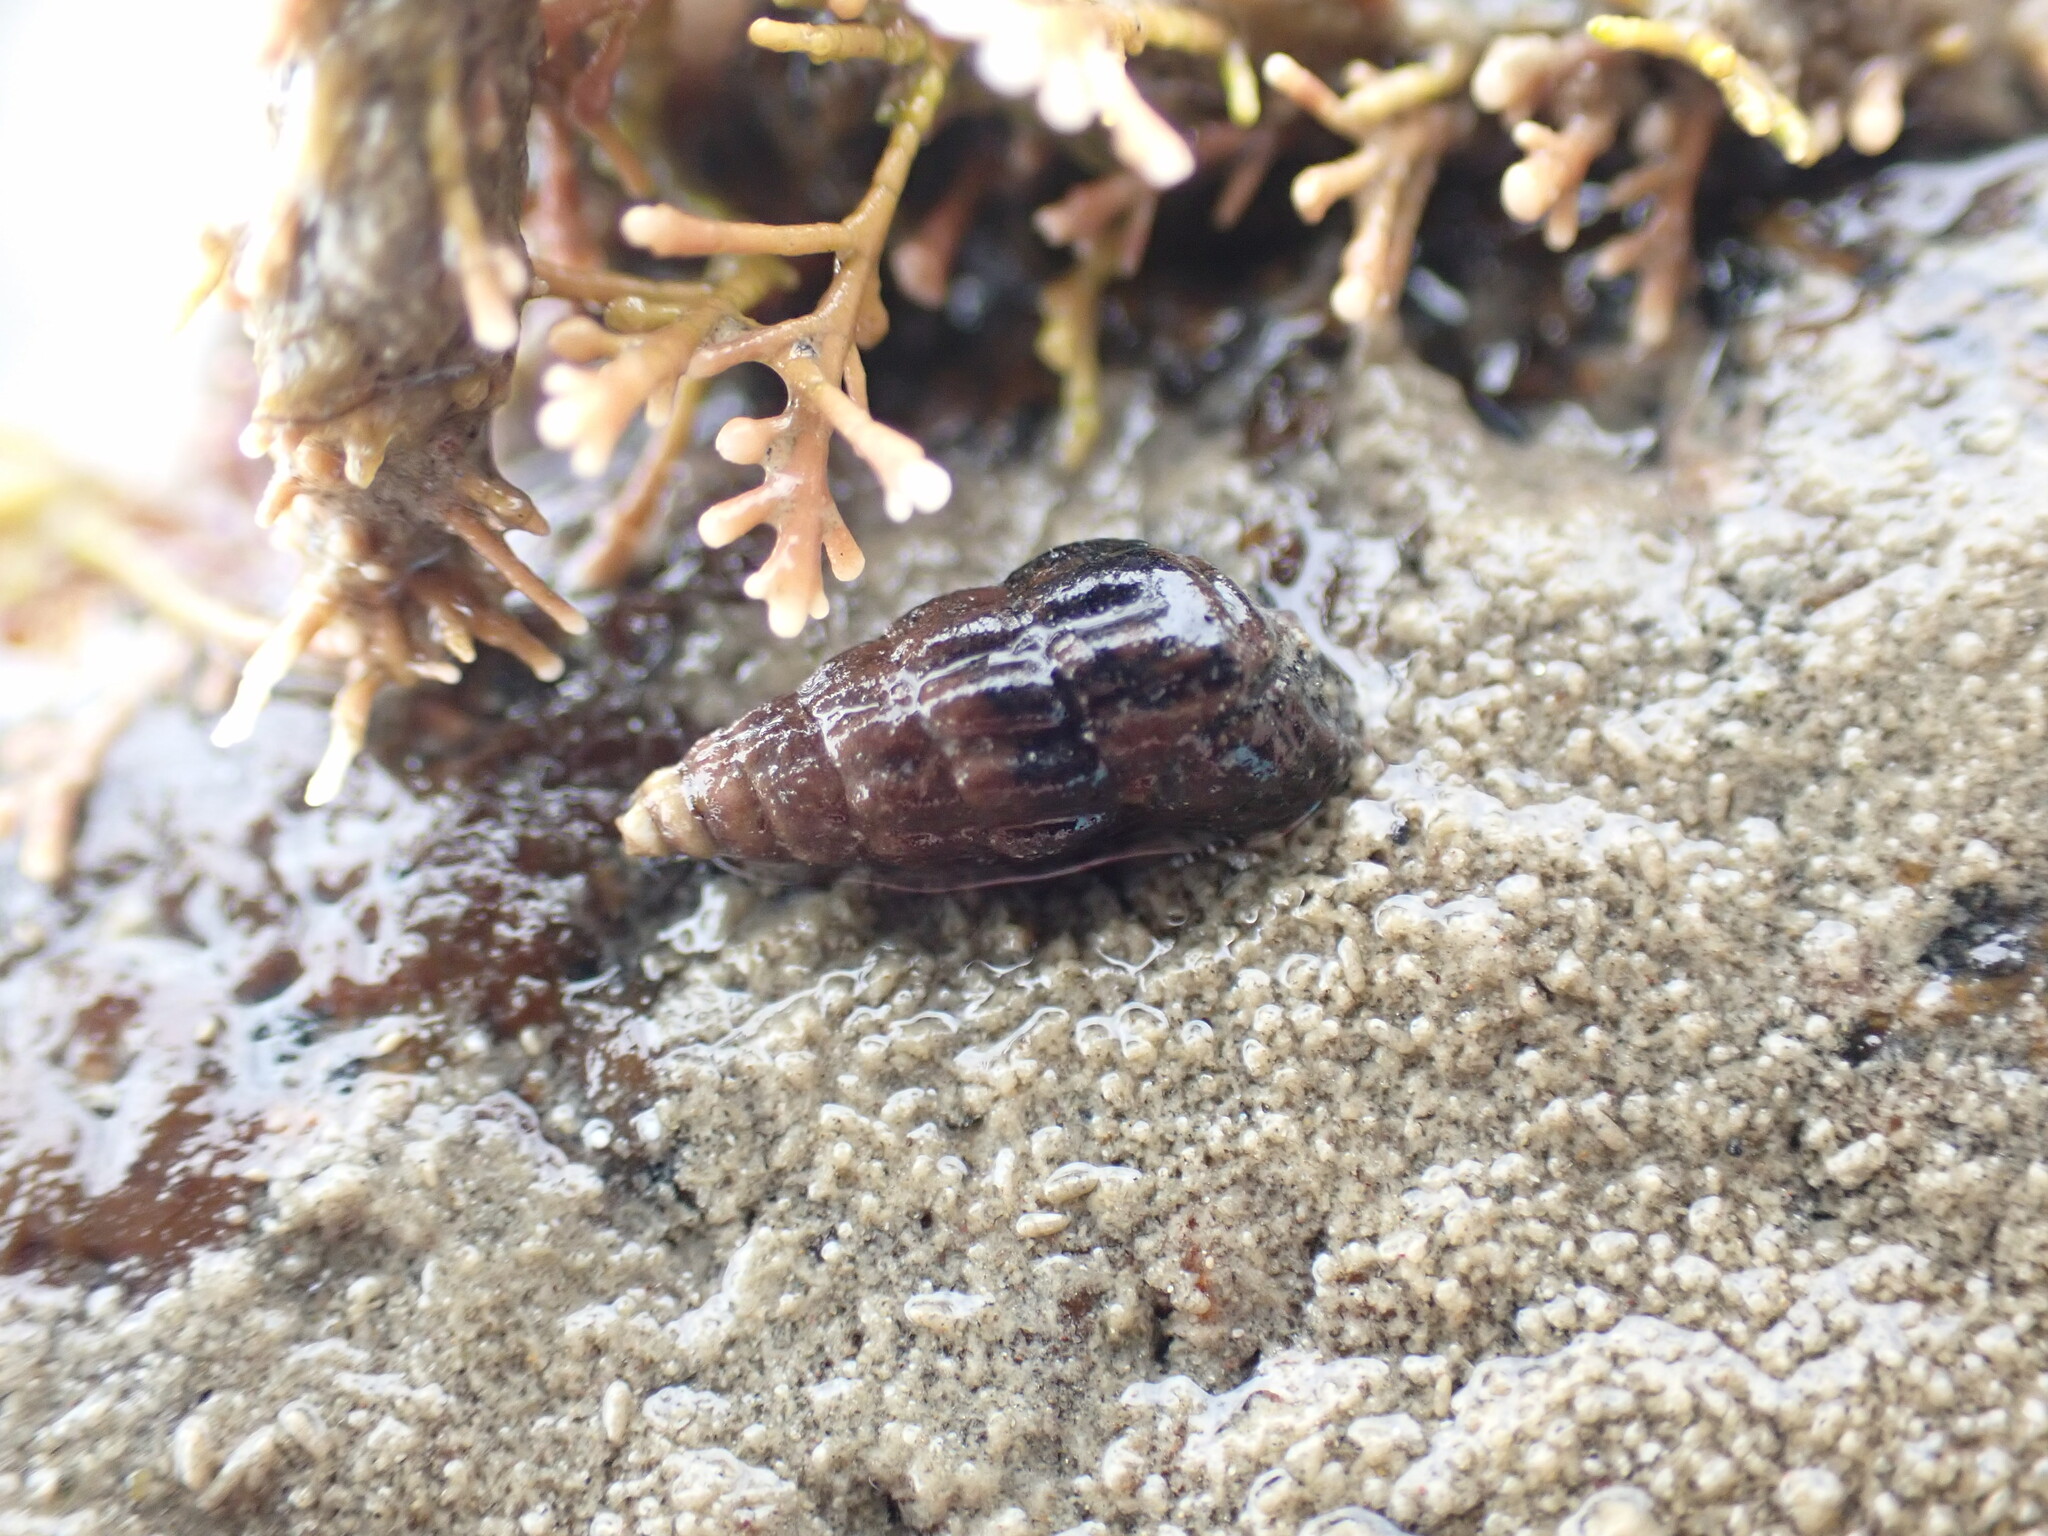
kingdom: Animalia
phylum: Mollusca
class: Gastropoda
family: Batillariidae
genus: Zeacumantus
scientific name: Zeacumantus subcarinatus
